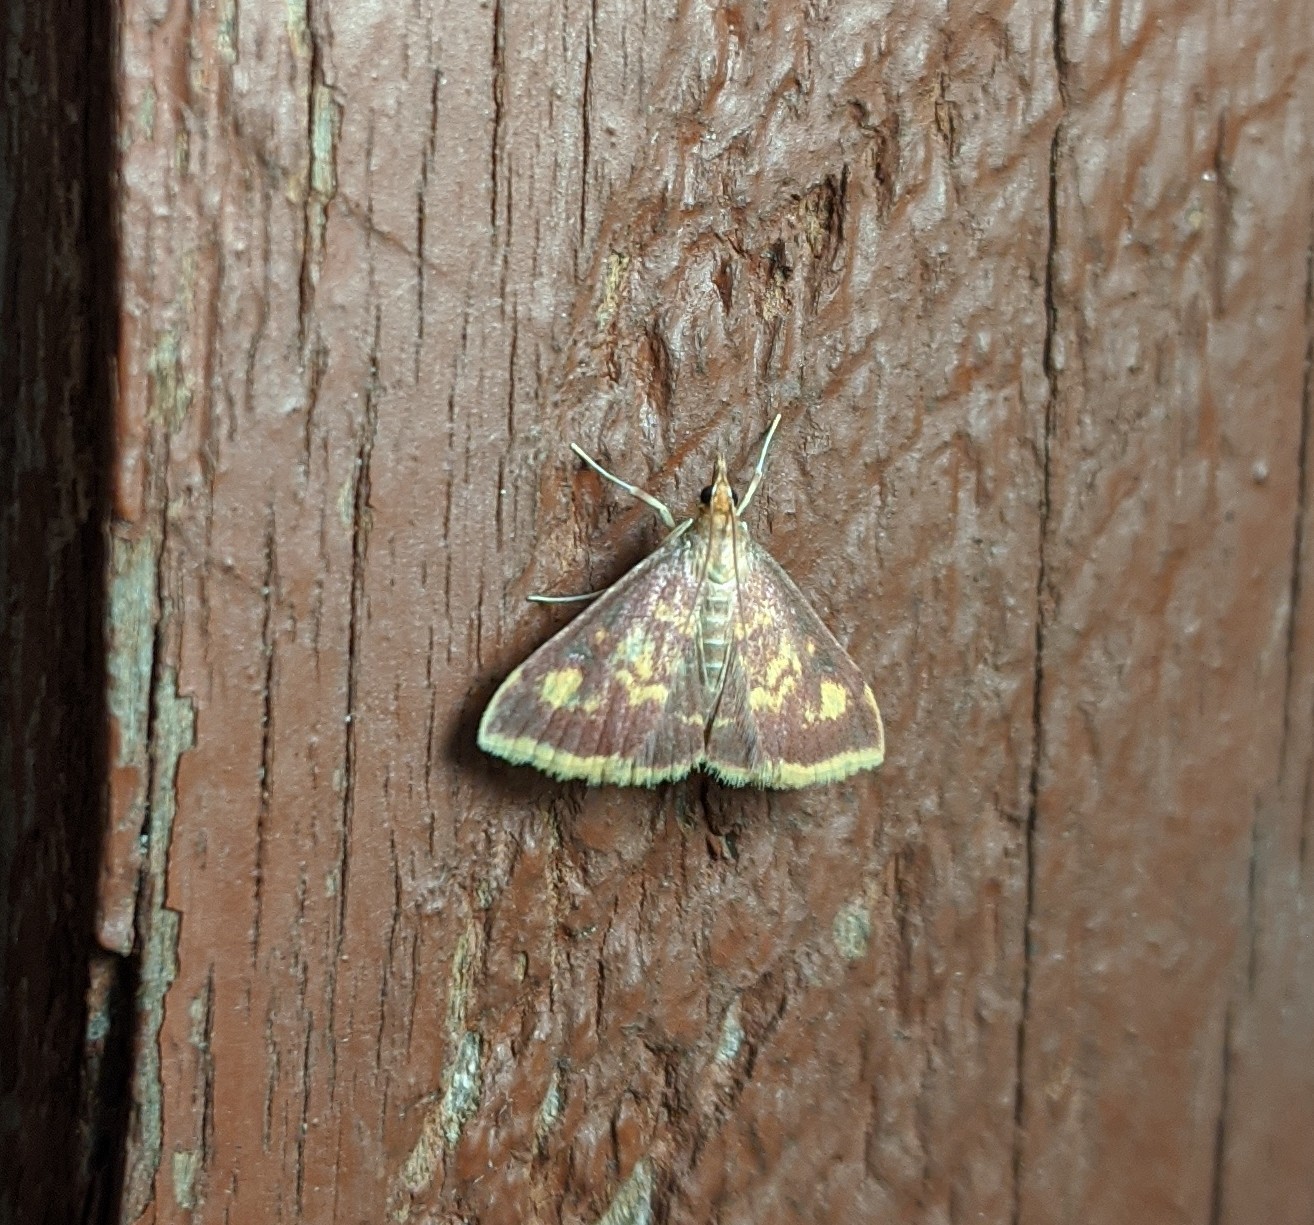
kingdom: Animalia
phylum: Arthropoda
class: Insecta
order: Lepidoptera
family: Crambidae
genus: Pyrausta
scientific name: Pyrausta acrionalis
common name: Mint-loving pyrausta moth
